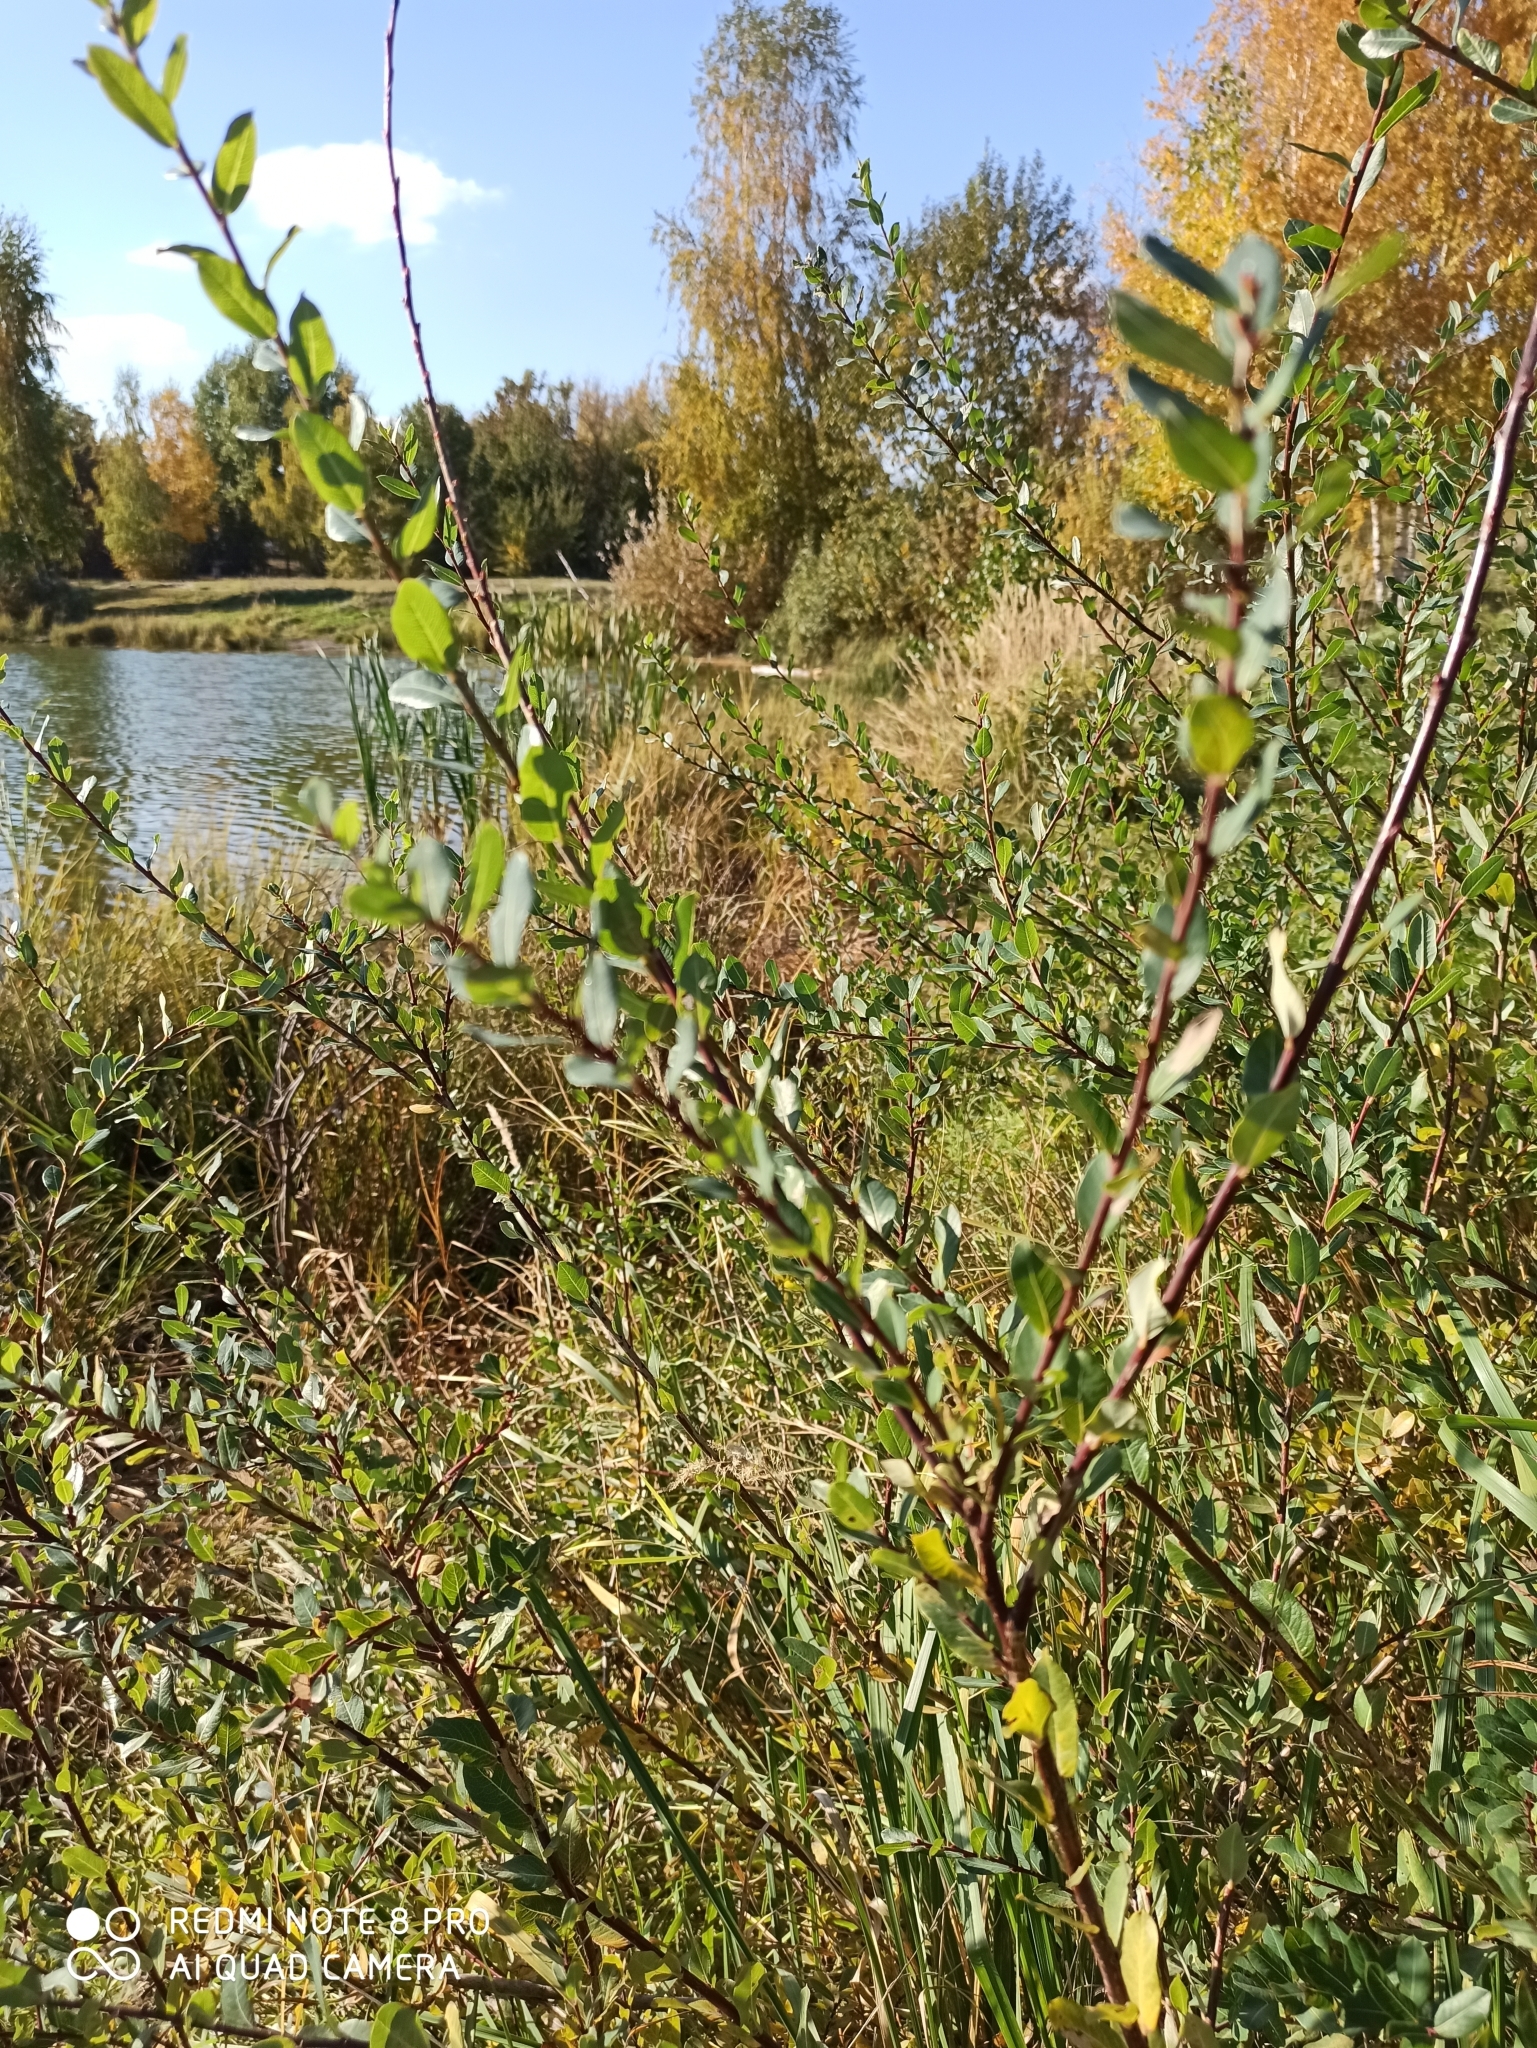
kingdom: Plantae
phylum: Tracheophyta
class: Magnoliopsida
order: Malpighiales
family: Salicaceae
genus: Salix
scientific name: Salix myrtilloides
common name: Myrtle-leaved willow
